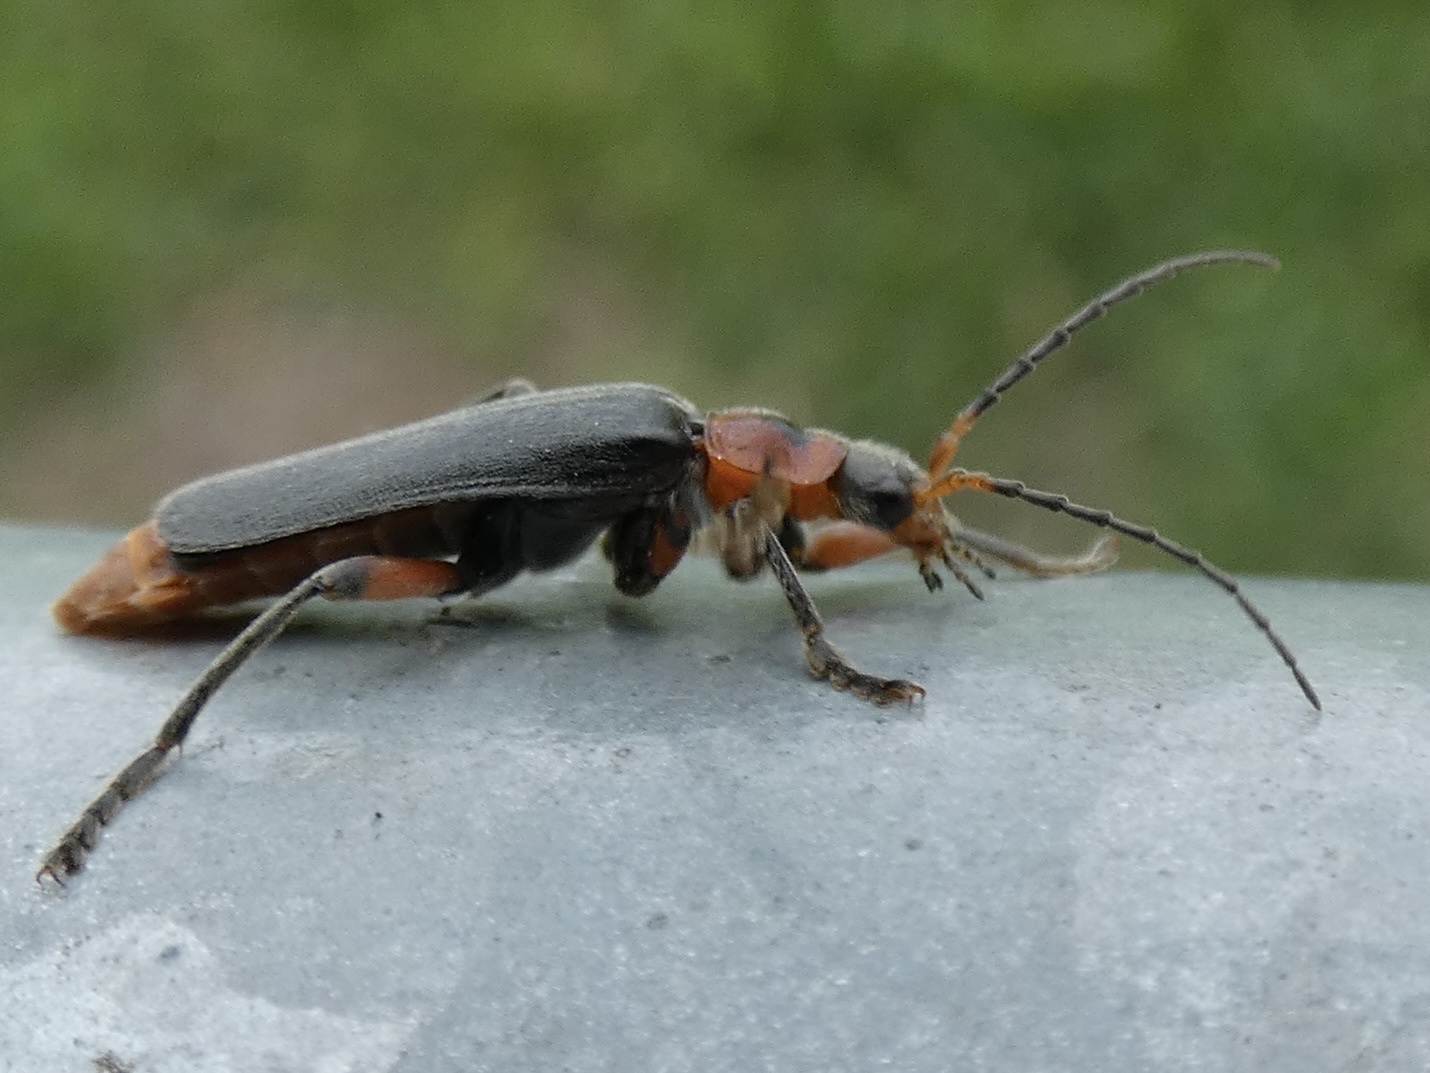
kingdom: Animalia
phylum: Arthropoda
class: Insecta
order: Coleoptera
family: Cantharidae
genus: Cantharis
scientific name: Cantharis rustica
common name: Soldier beetle
